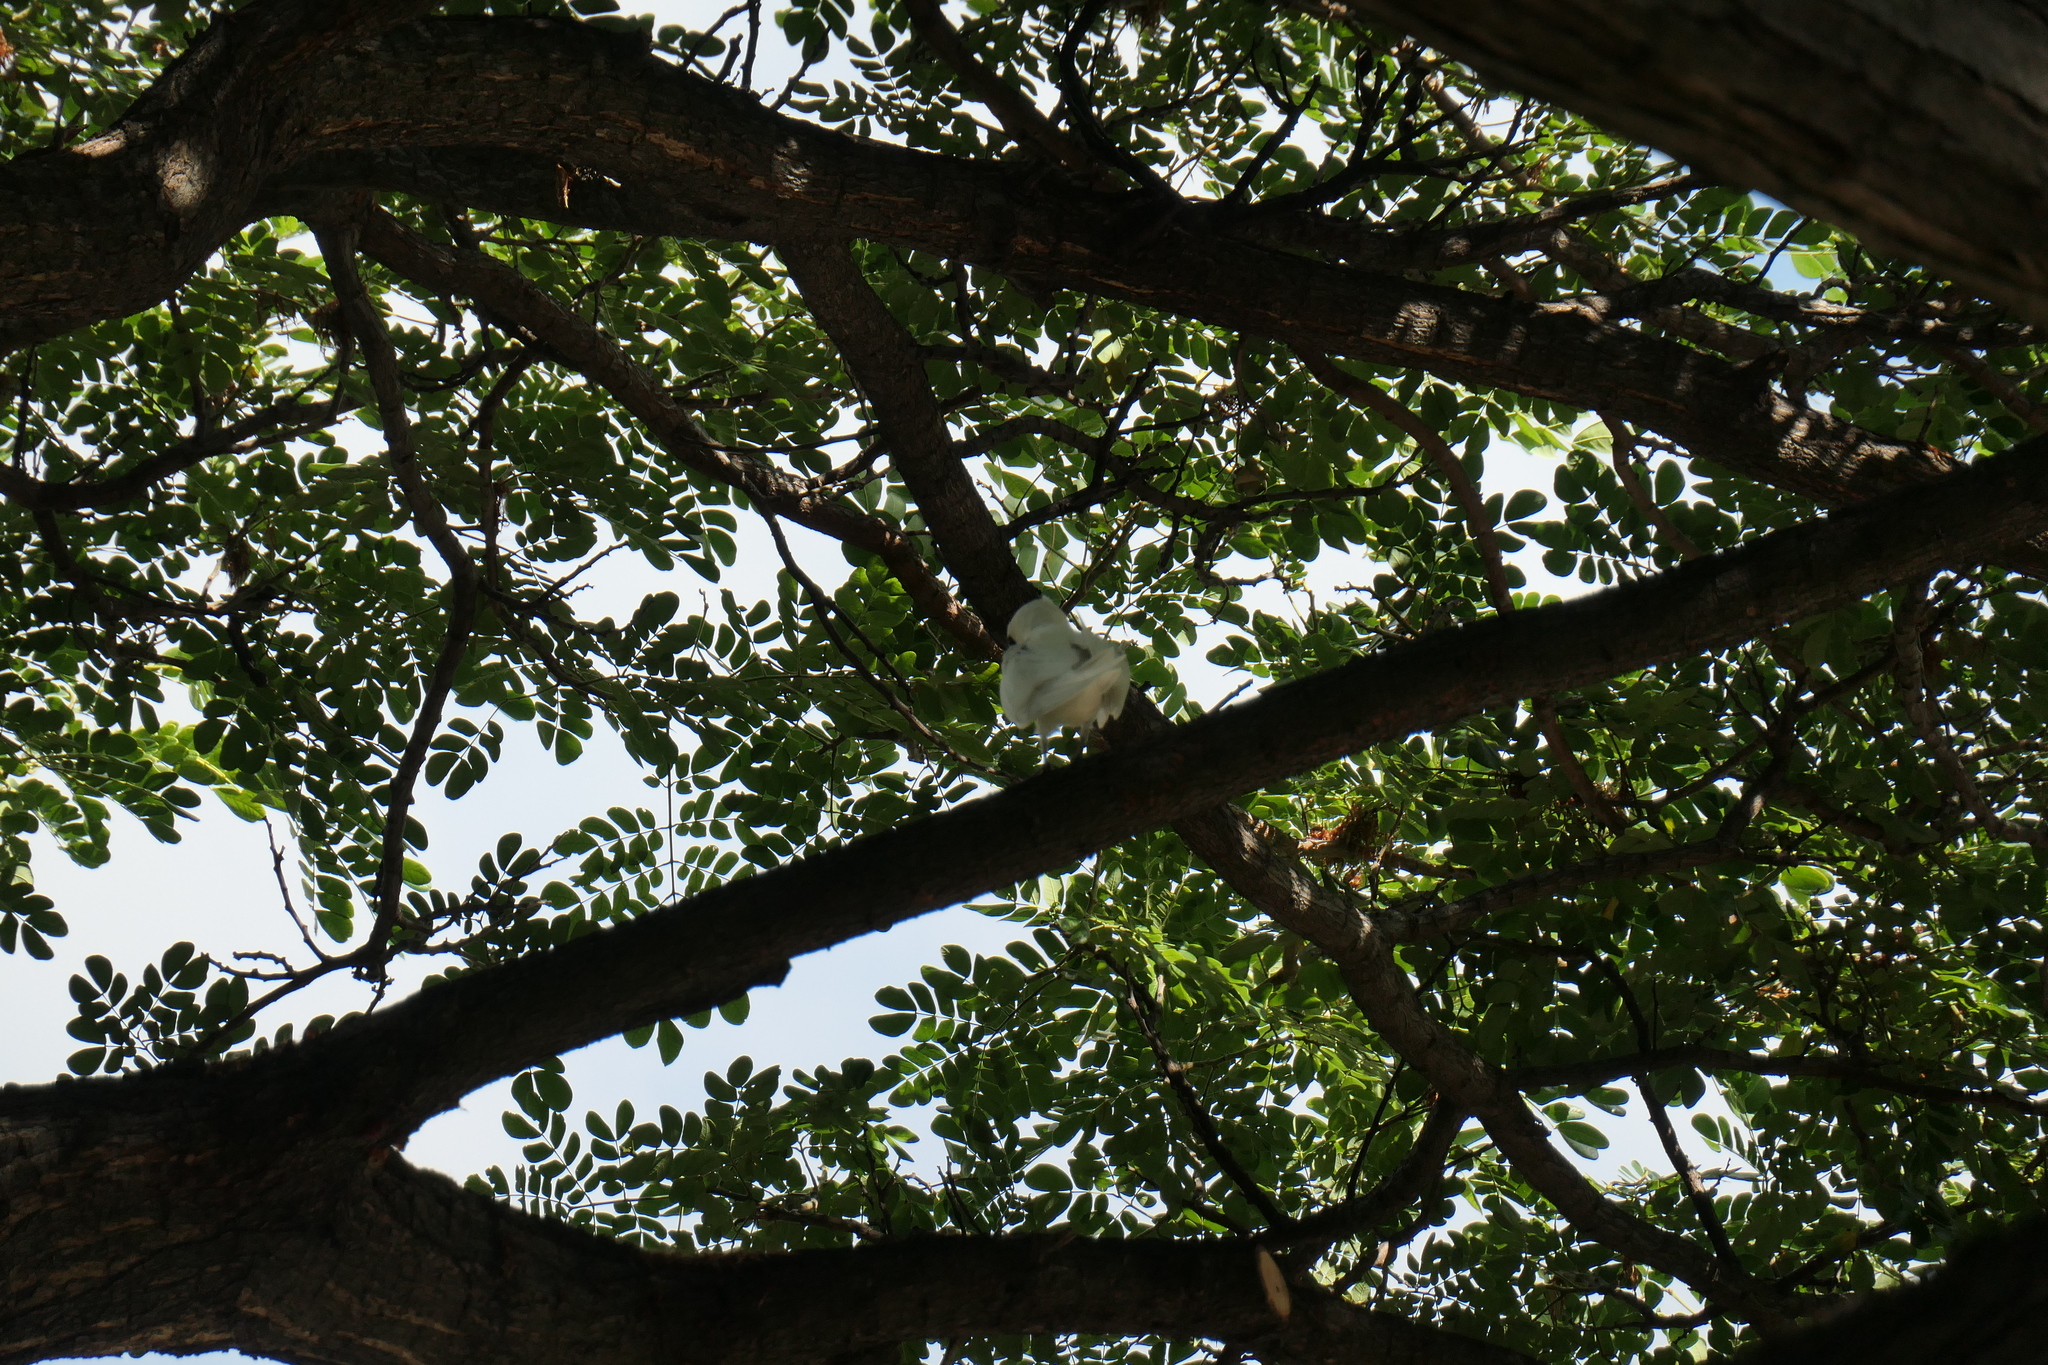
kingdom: Animalia
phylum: Chordata
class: Aves
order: Charadriiformes
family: Laridae
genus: Gygis
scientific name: Gygis alba
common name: White tern
